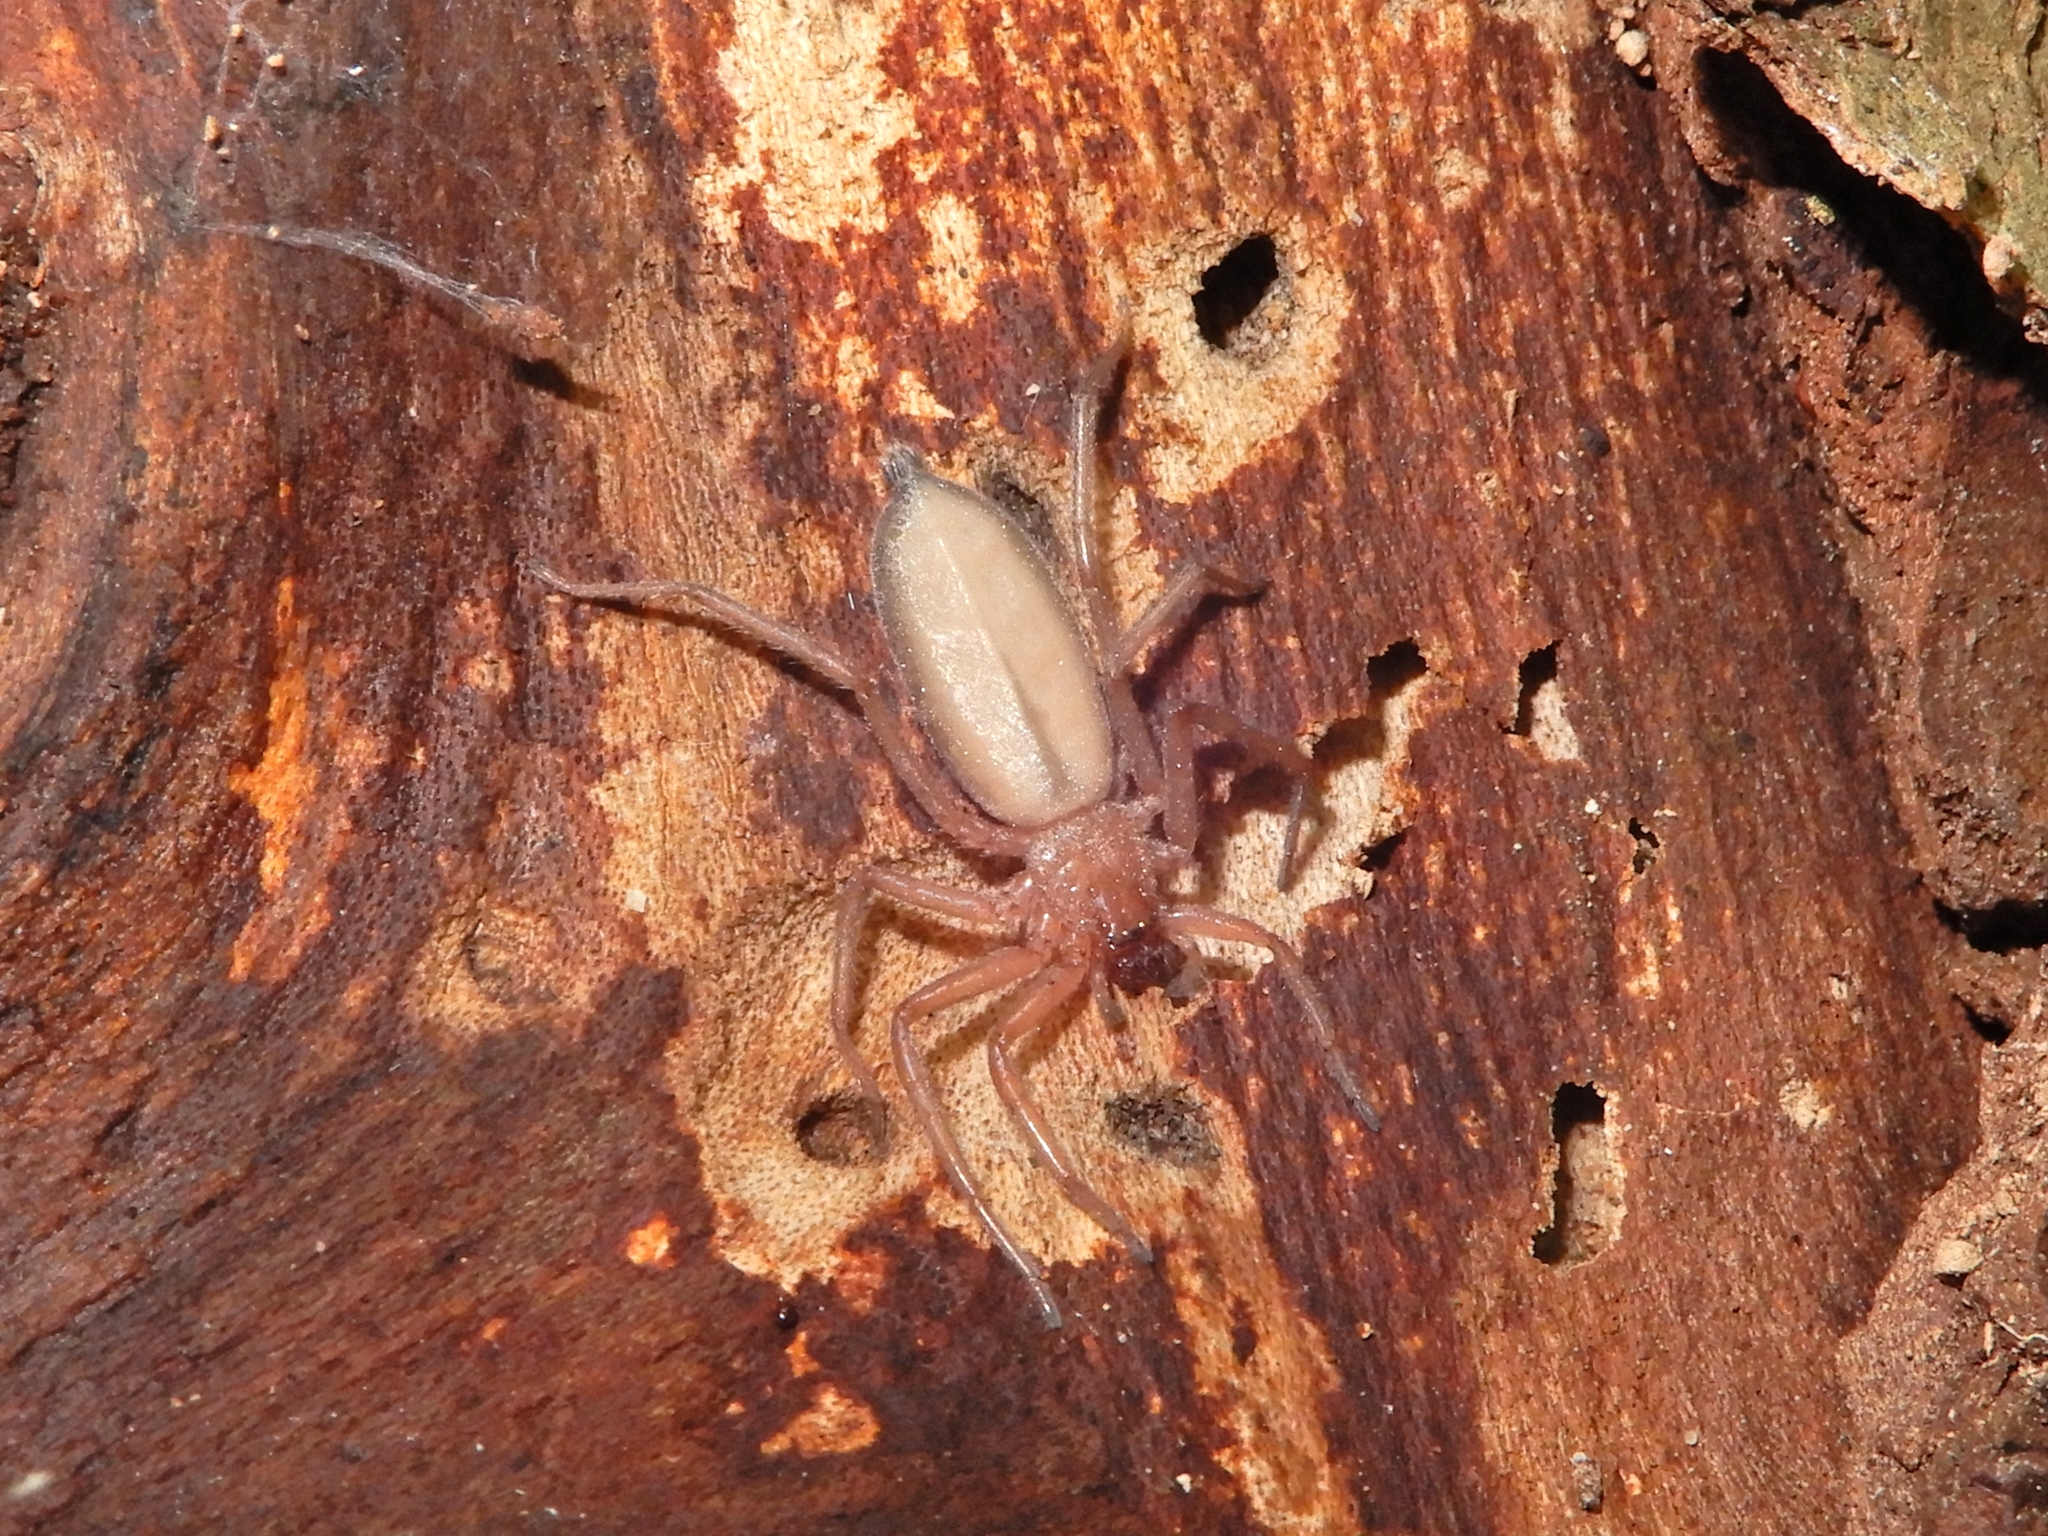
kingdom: Animalia
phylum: Arthropoda
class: Arachnida
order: Araneae
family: Trochanteriidae
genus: Hemicloea
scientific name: Hemicloea rogenhoferi
